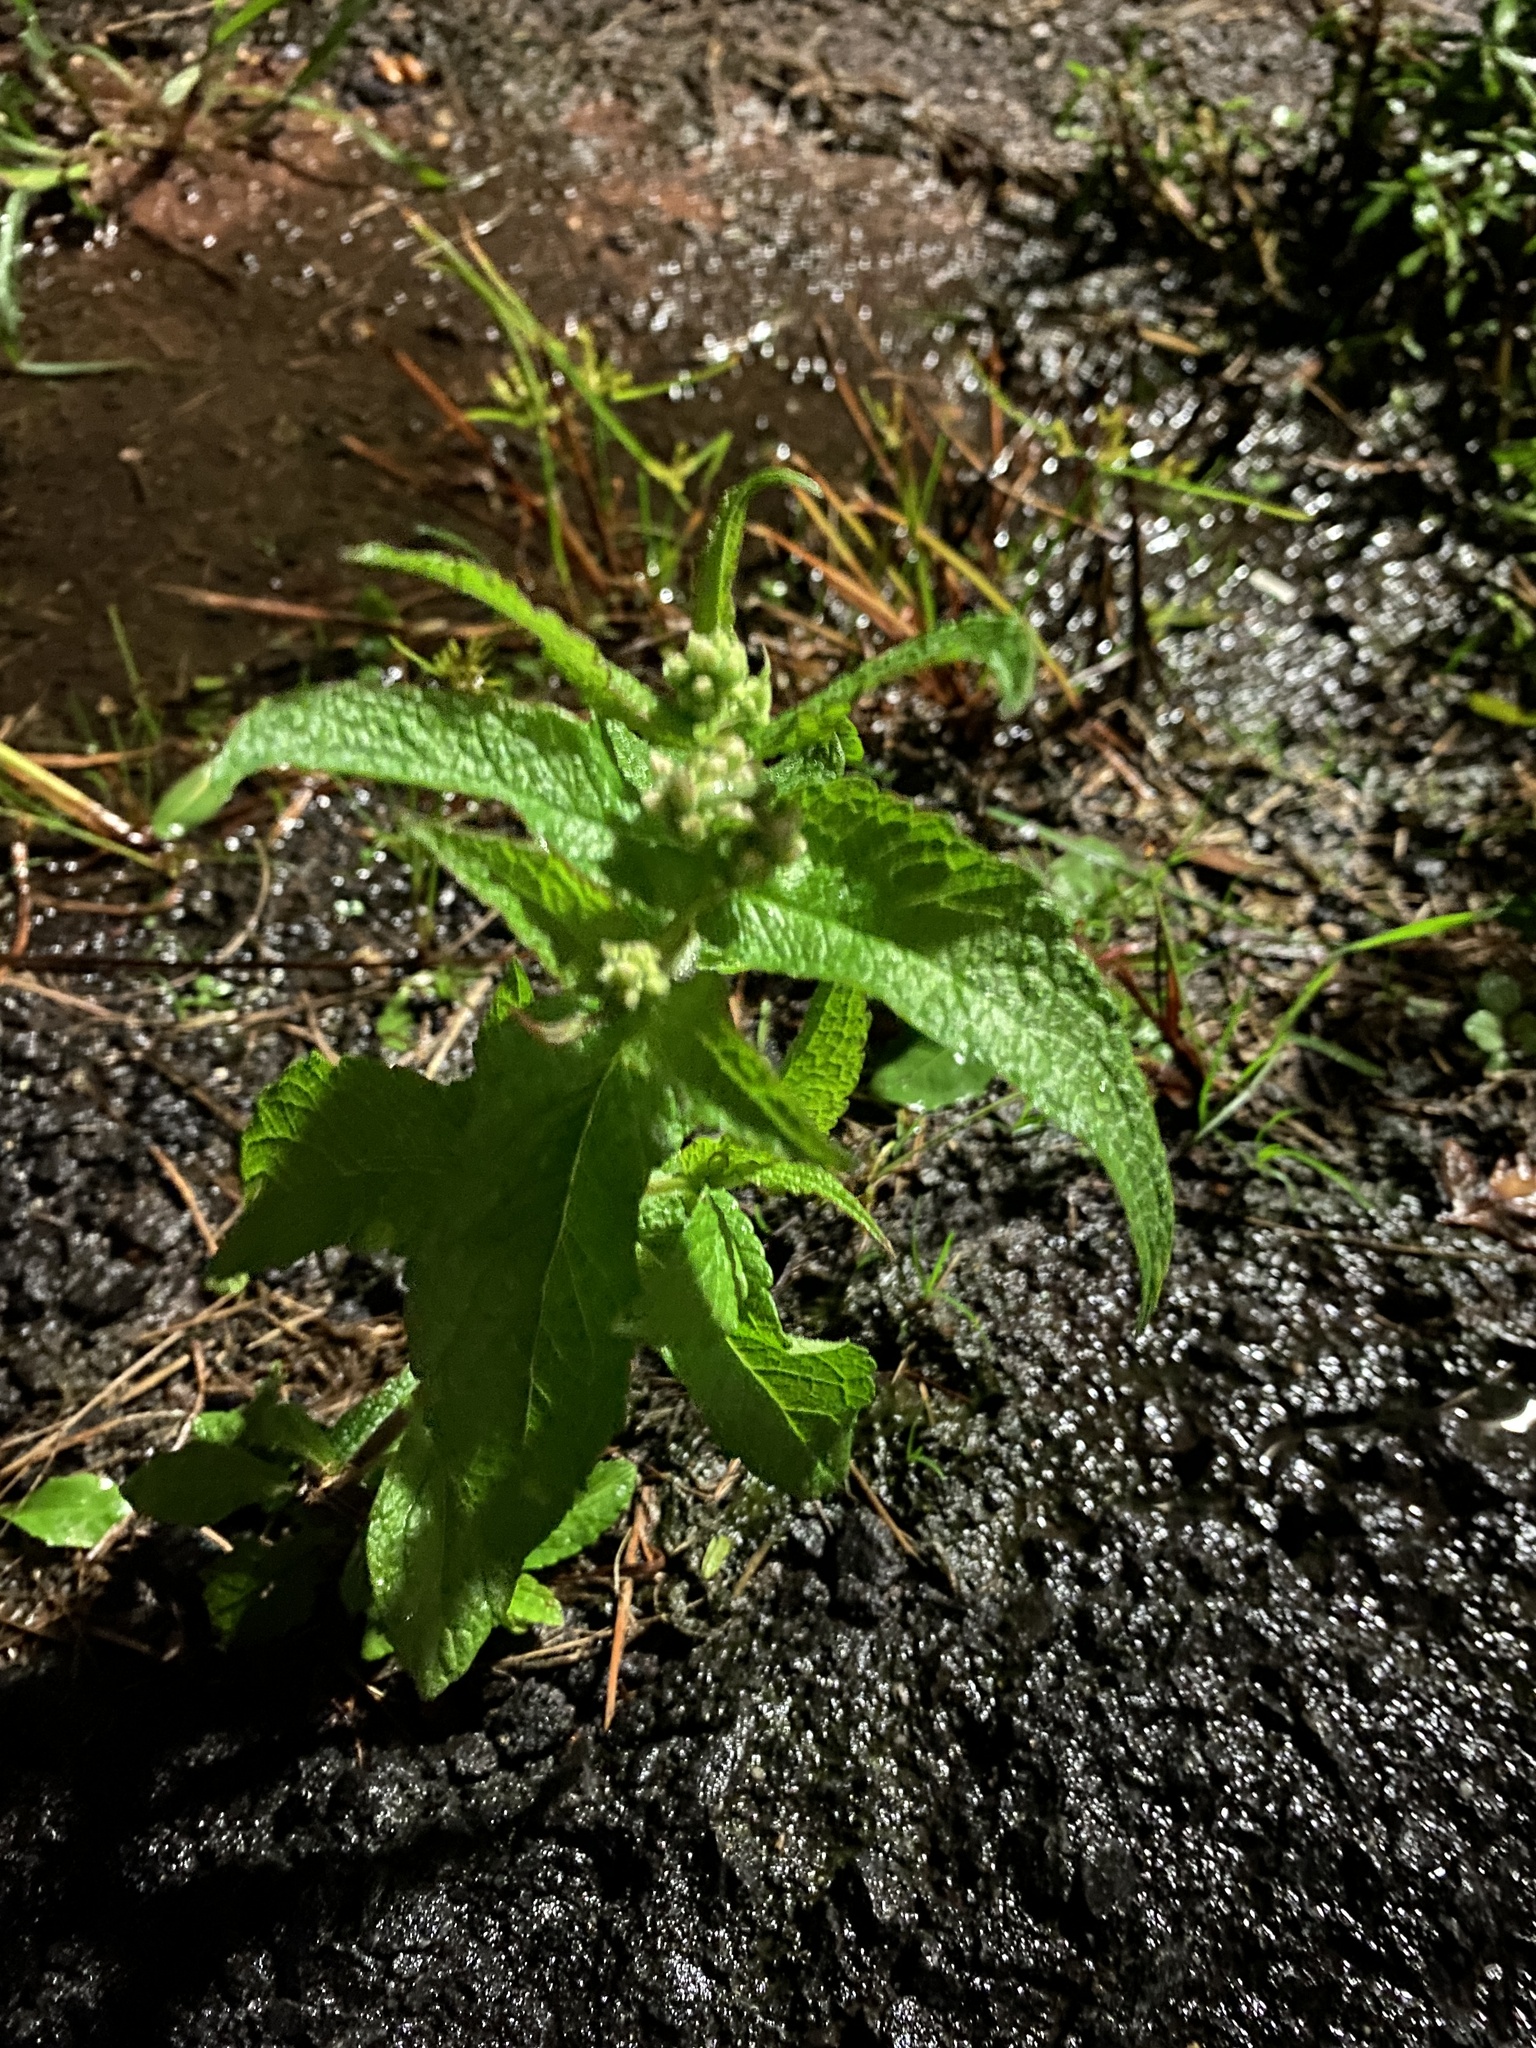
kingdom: Plantae
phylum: Tracheophyta
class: Magnoliopsida
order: Asterales
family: Asteraceae
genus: Eupatorium
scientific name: Eupatorium perfoliatum
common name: Boneset
